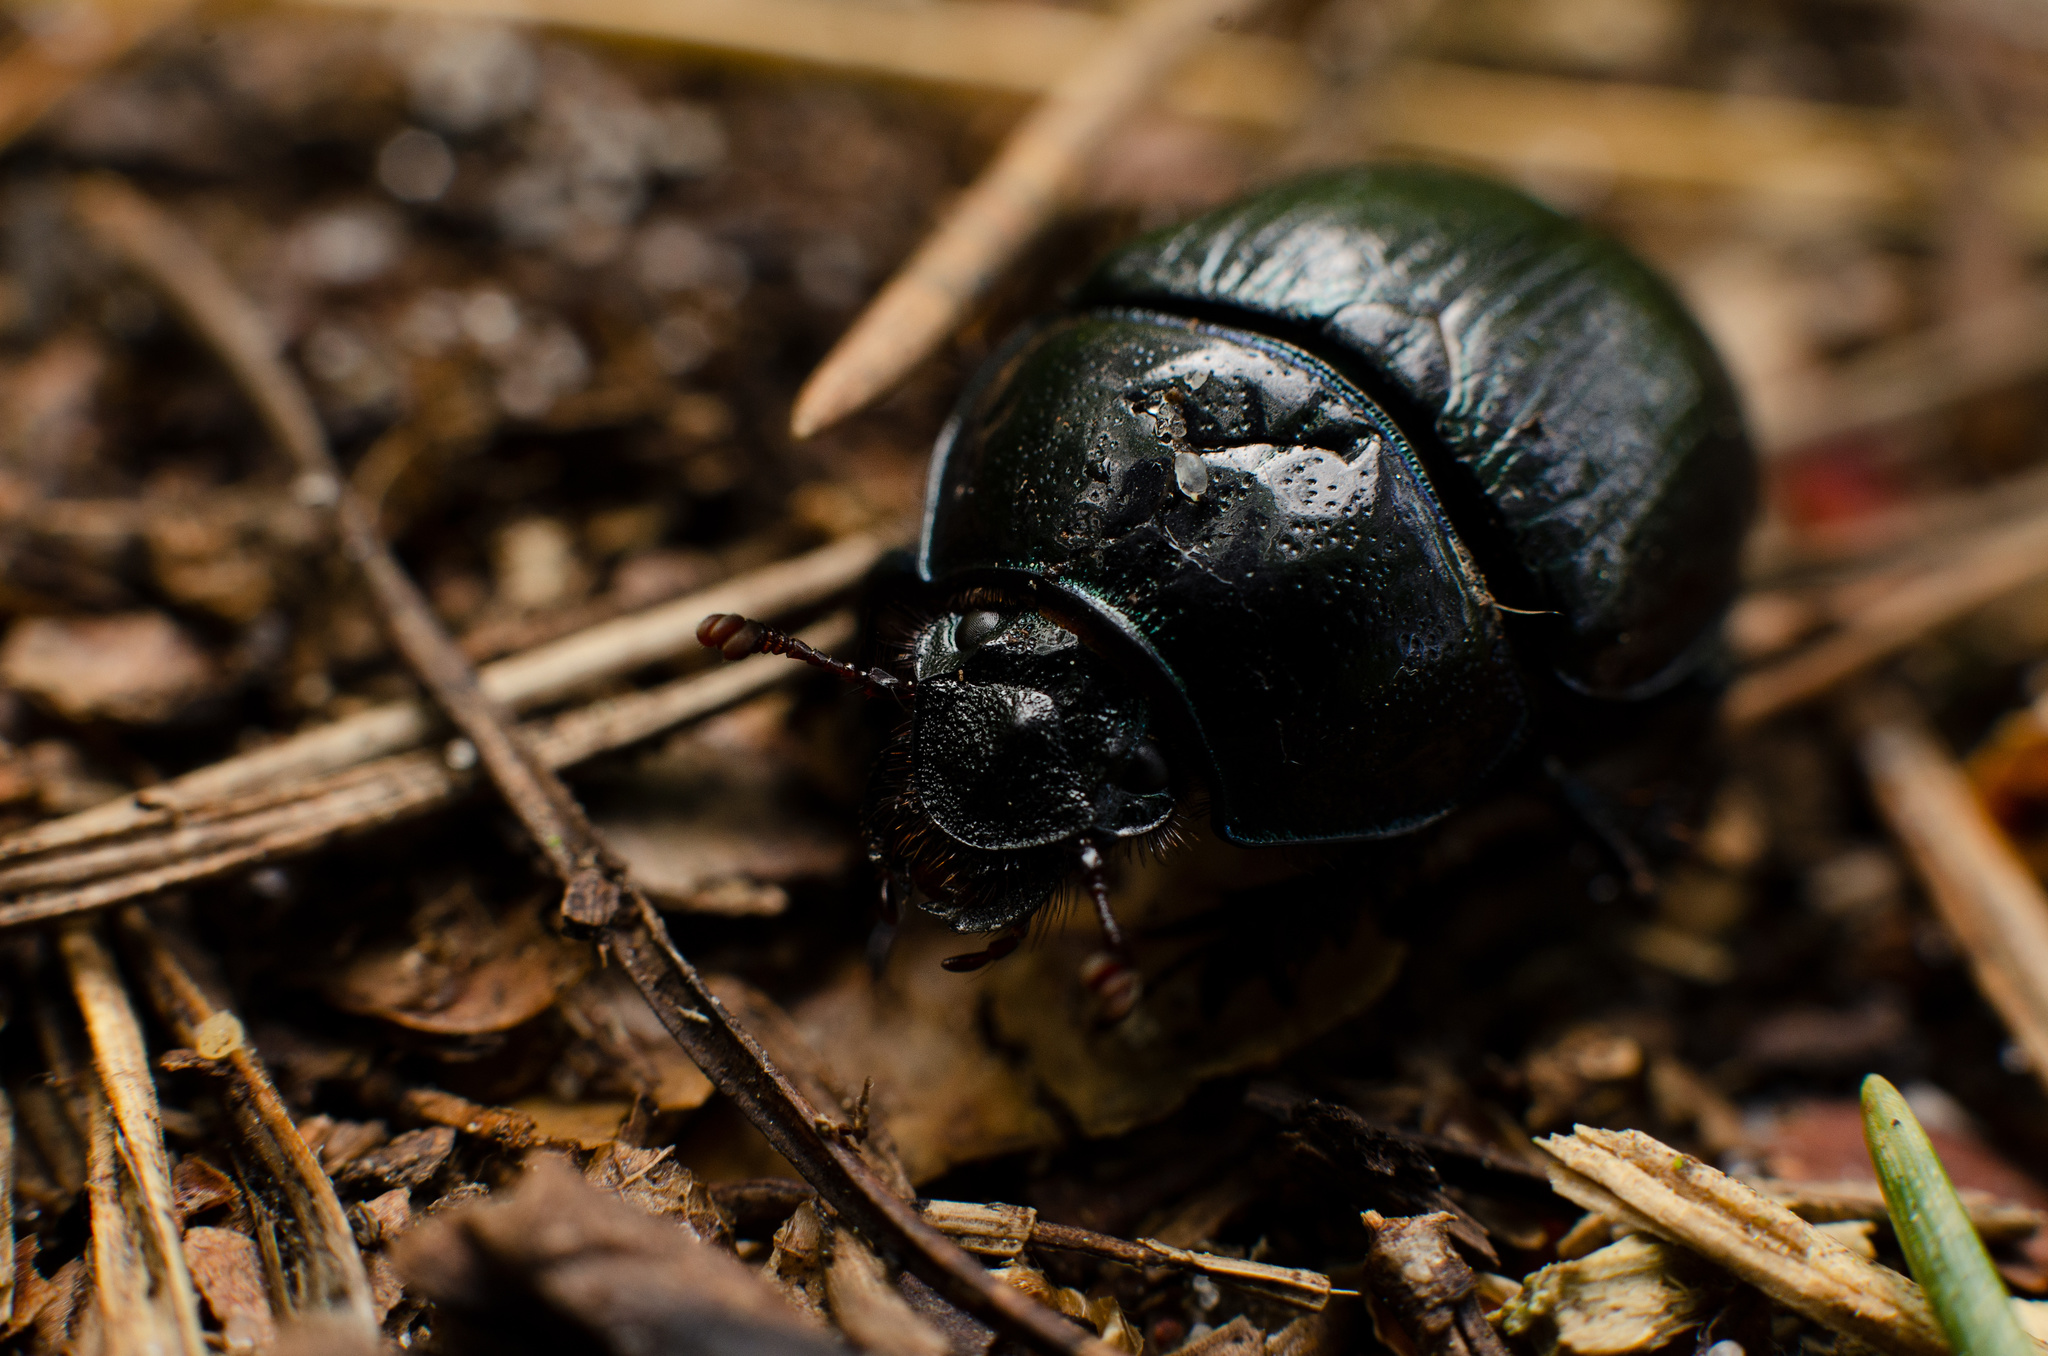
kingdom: Animalia
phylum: Arthropoda
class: Insecta
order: Coleoptera
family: Geotrupidae
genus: Anoplotrupes
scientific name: Anoplotrupes stercorosus
